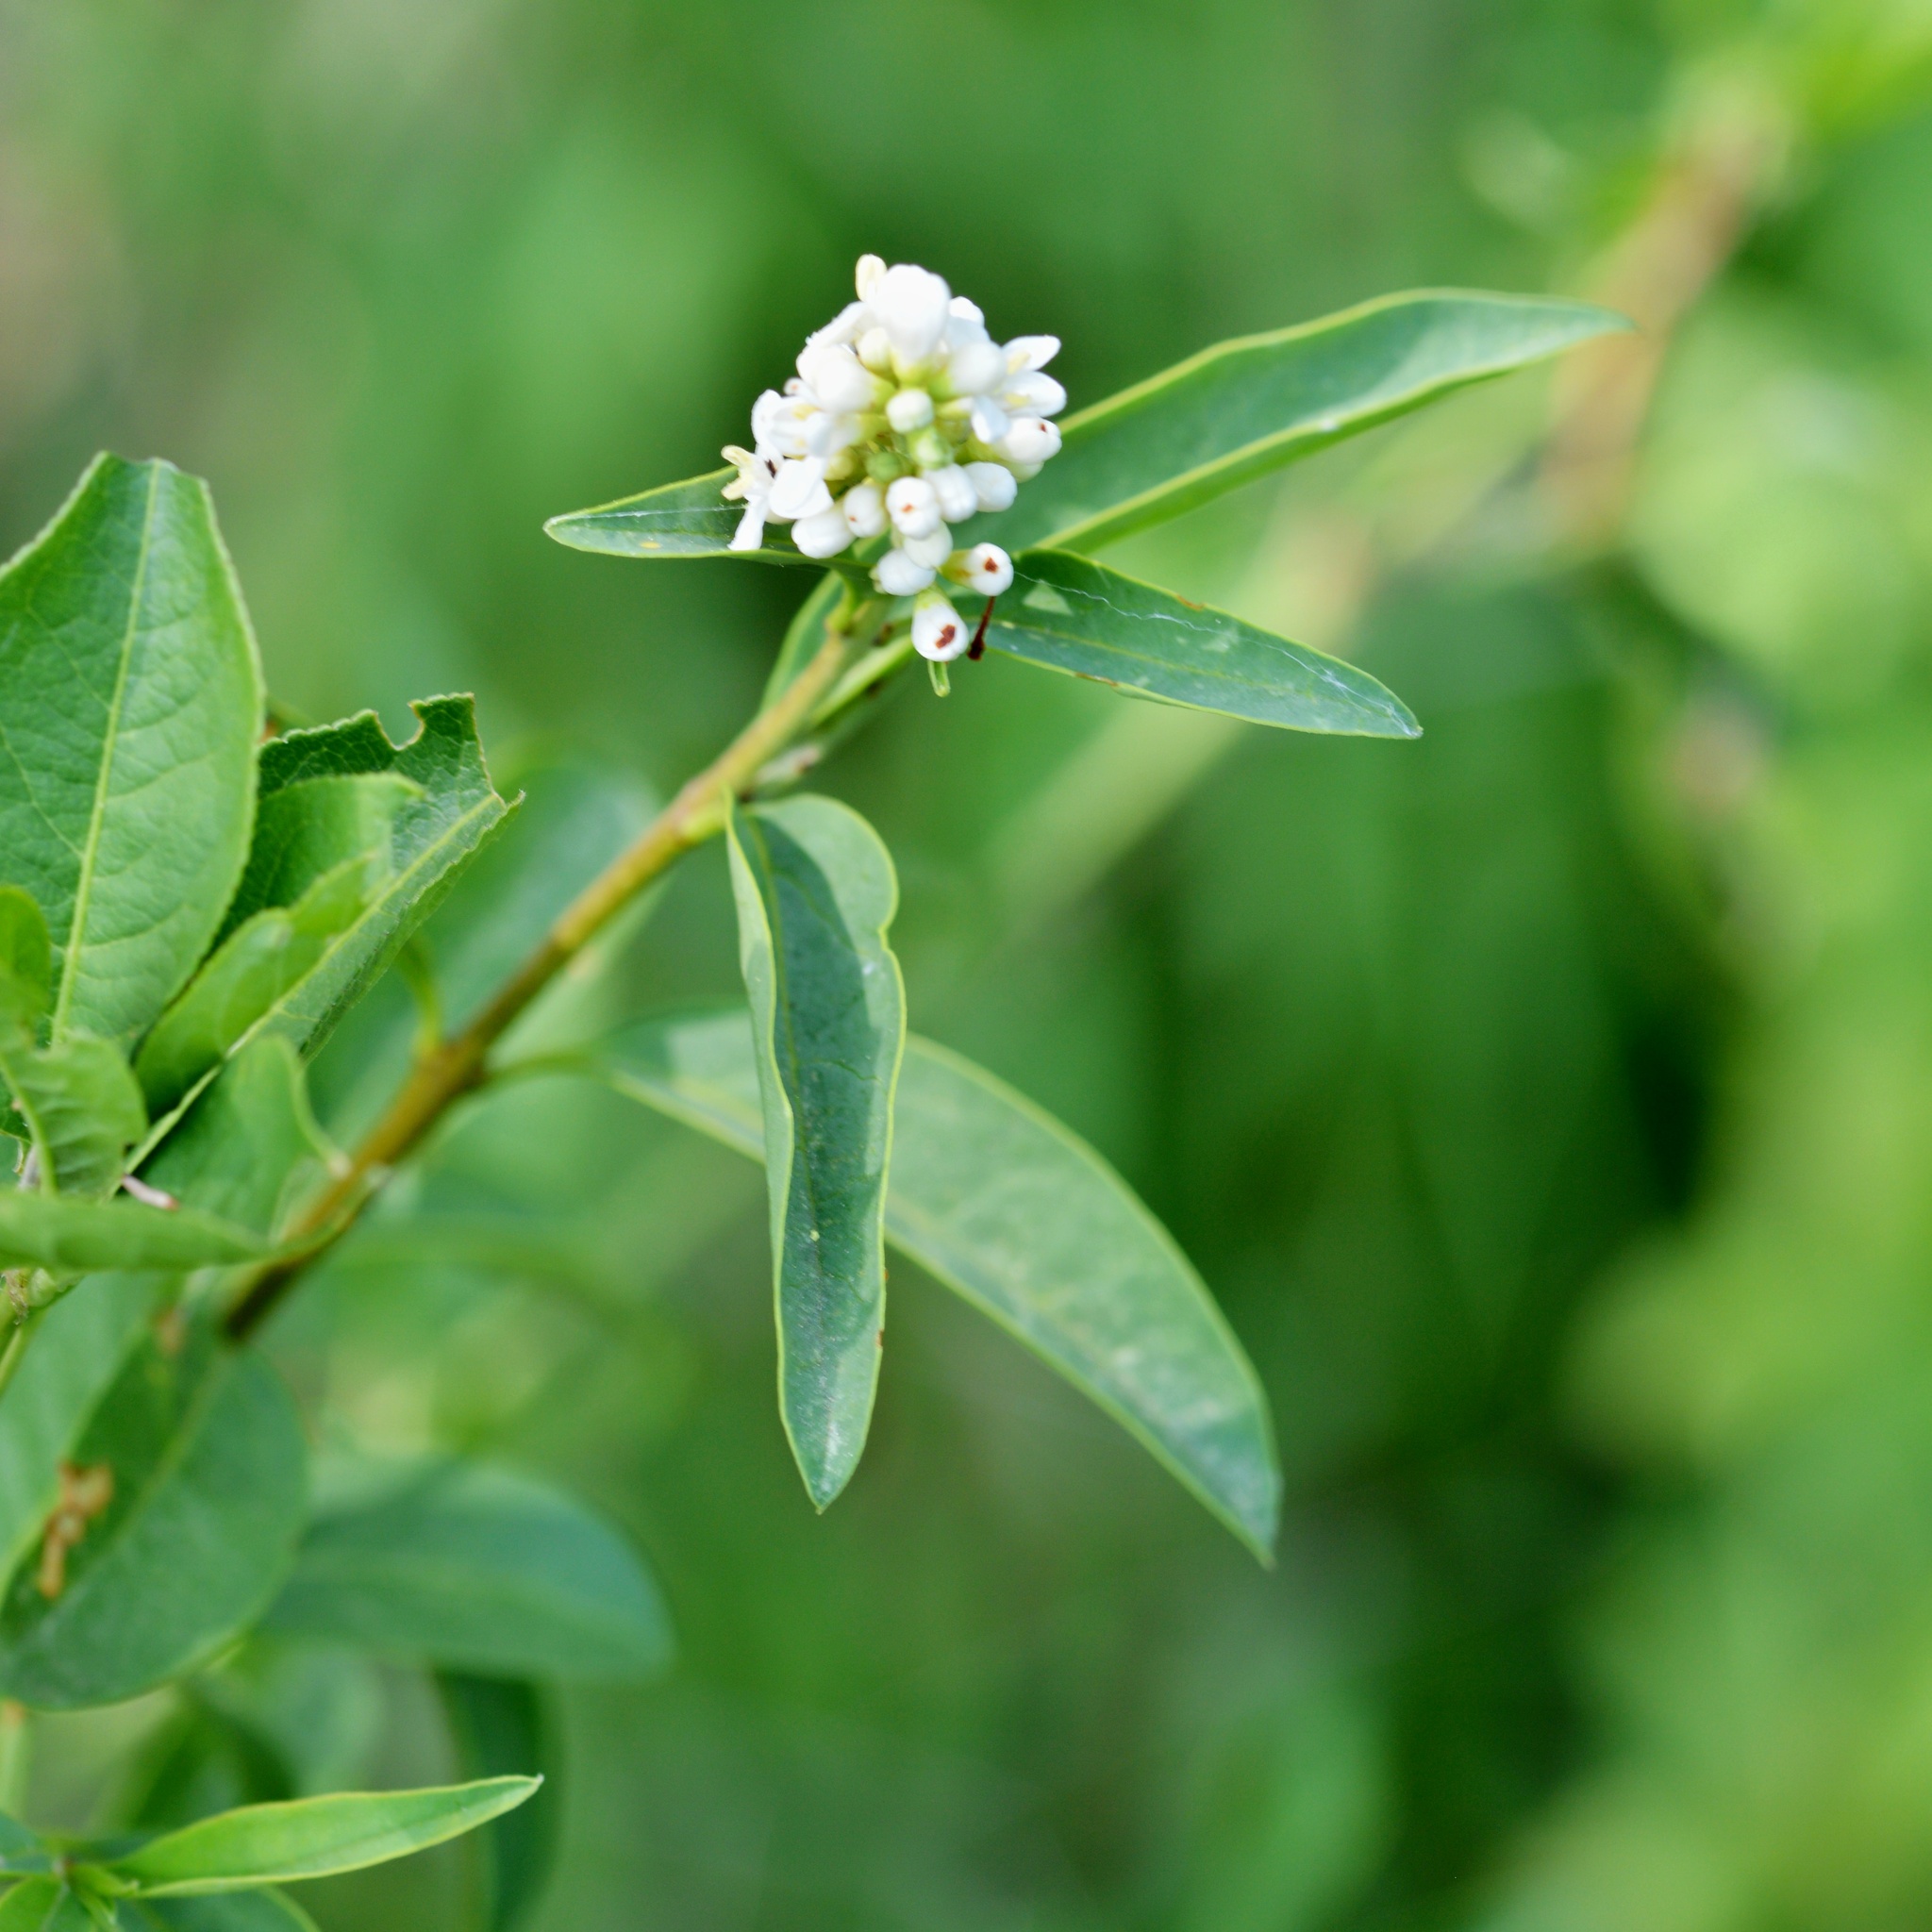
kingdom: Plantae
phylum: Tracheophyta
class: Magnoliopsida
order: Lamiales
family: Oleaceae
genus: Ligustrum
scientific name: Ligustrum vulgare
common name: Wild privet
